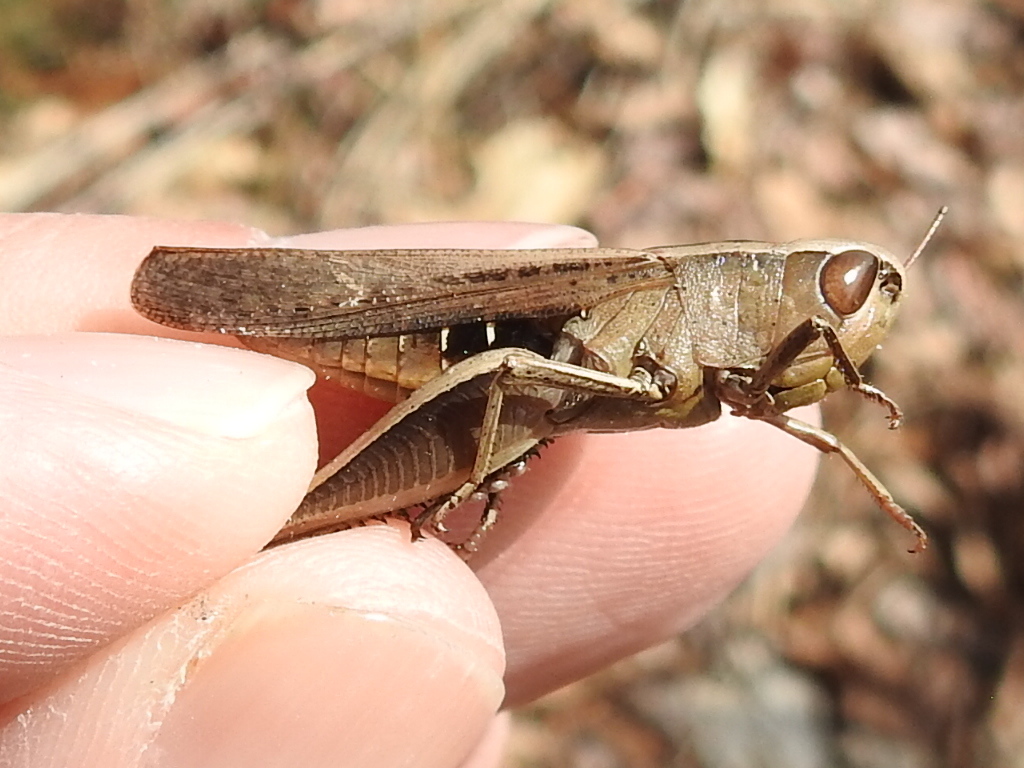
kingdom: Animalia
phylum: Arthropoda
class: Insecta
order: Orthoptera
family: Acrididae
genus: Amblytropidia
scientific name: Amblytropidia mysteca
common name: Brown winter grasshopper
